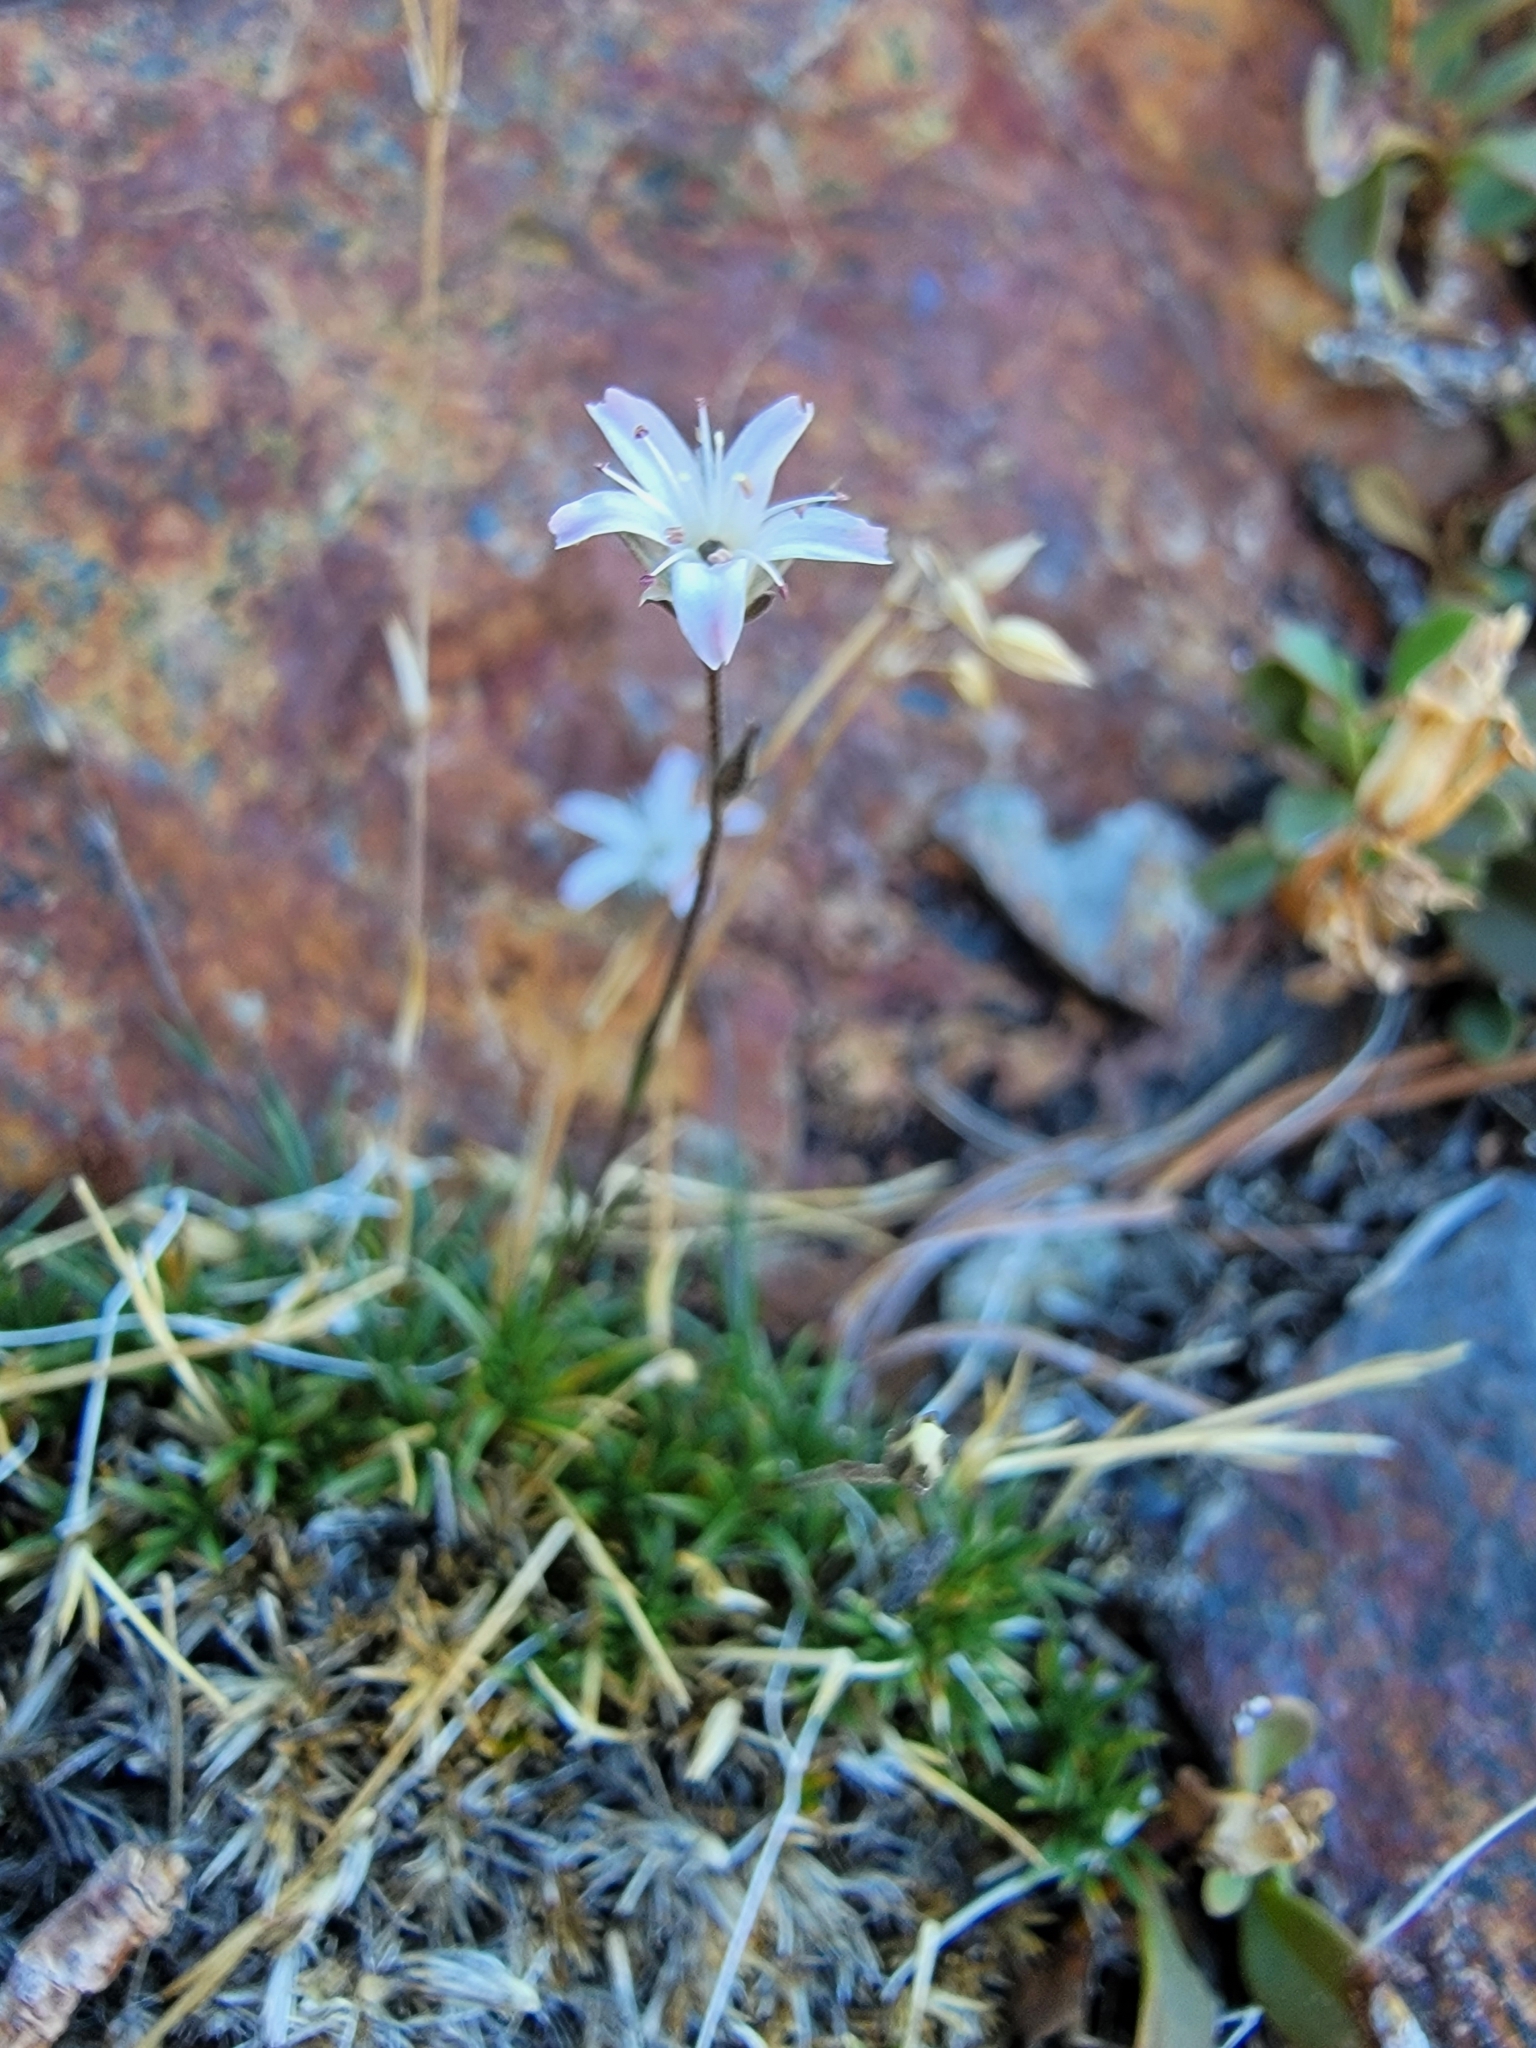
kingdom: Plantae
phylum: Tracheophyta
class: Magnoliopsida
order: Caryophyllales
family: Caryophyllaceae
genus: Eremogone
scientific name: Eremogone kingii
